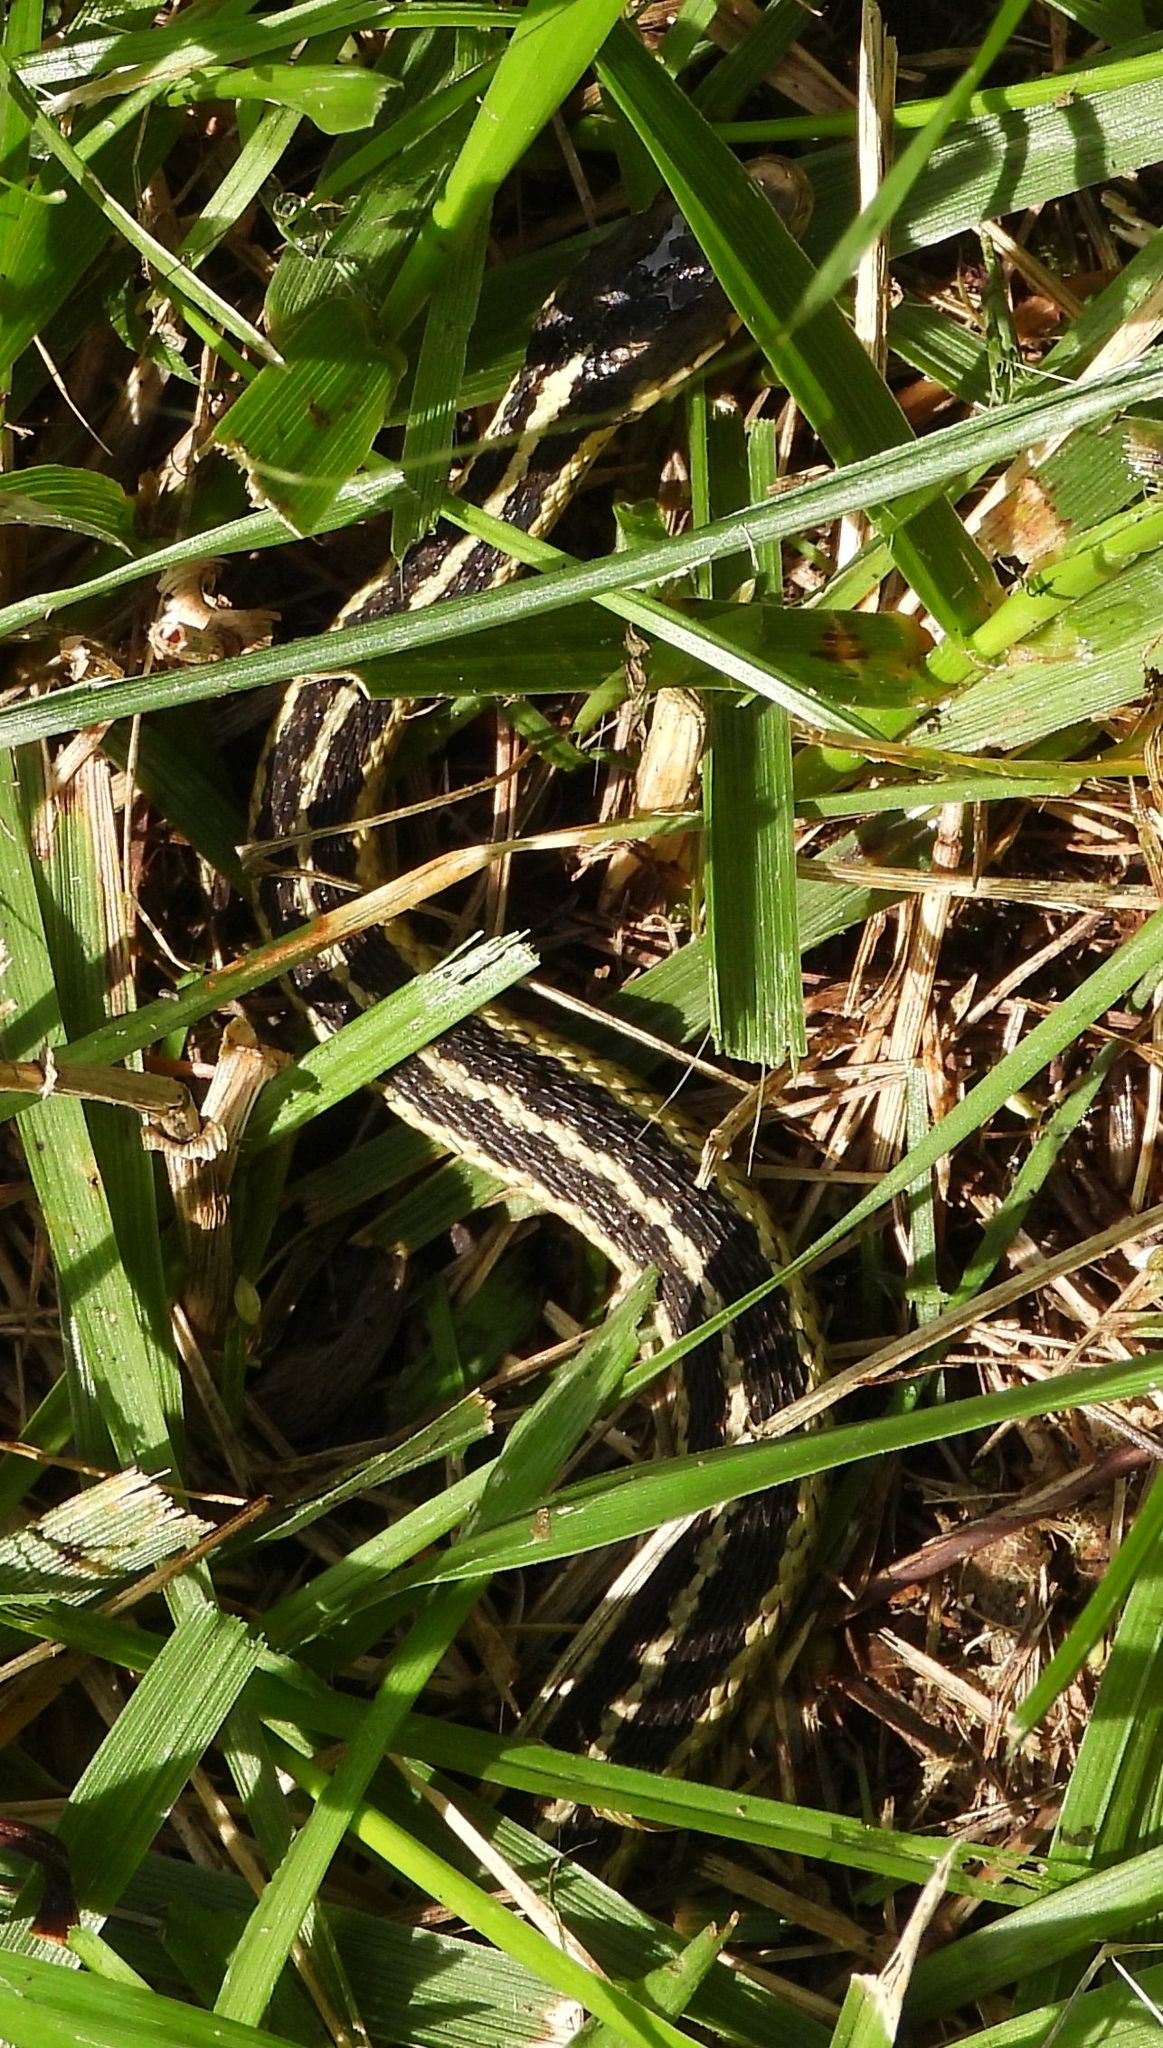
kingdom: Animalia
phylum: Chordata
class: Squamata
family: Colubridae
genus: Thamnophis
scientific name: Thamnophis sirtalis
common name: Common garter snake
